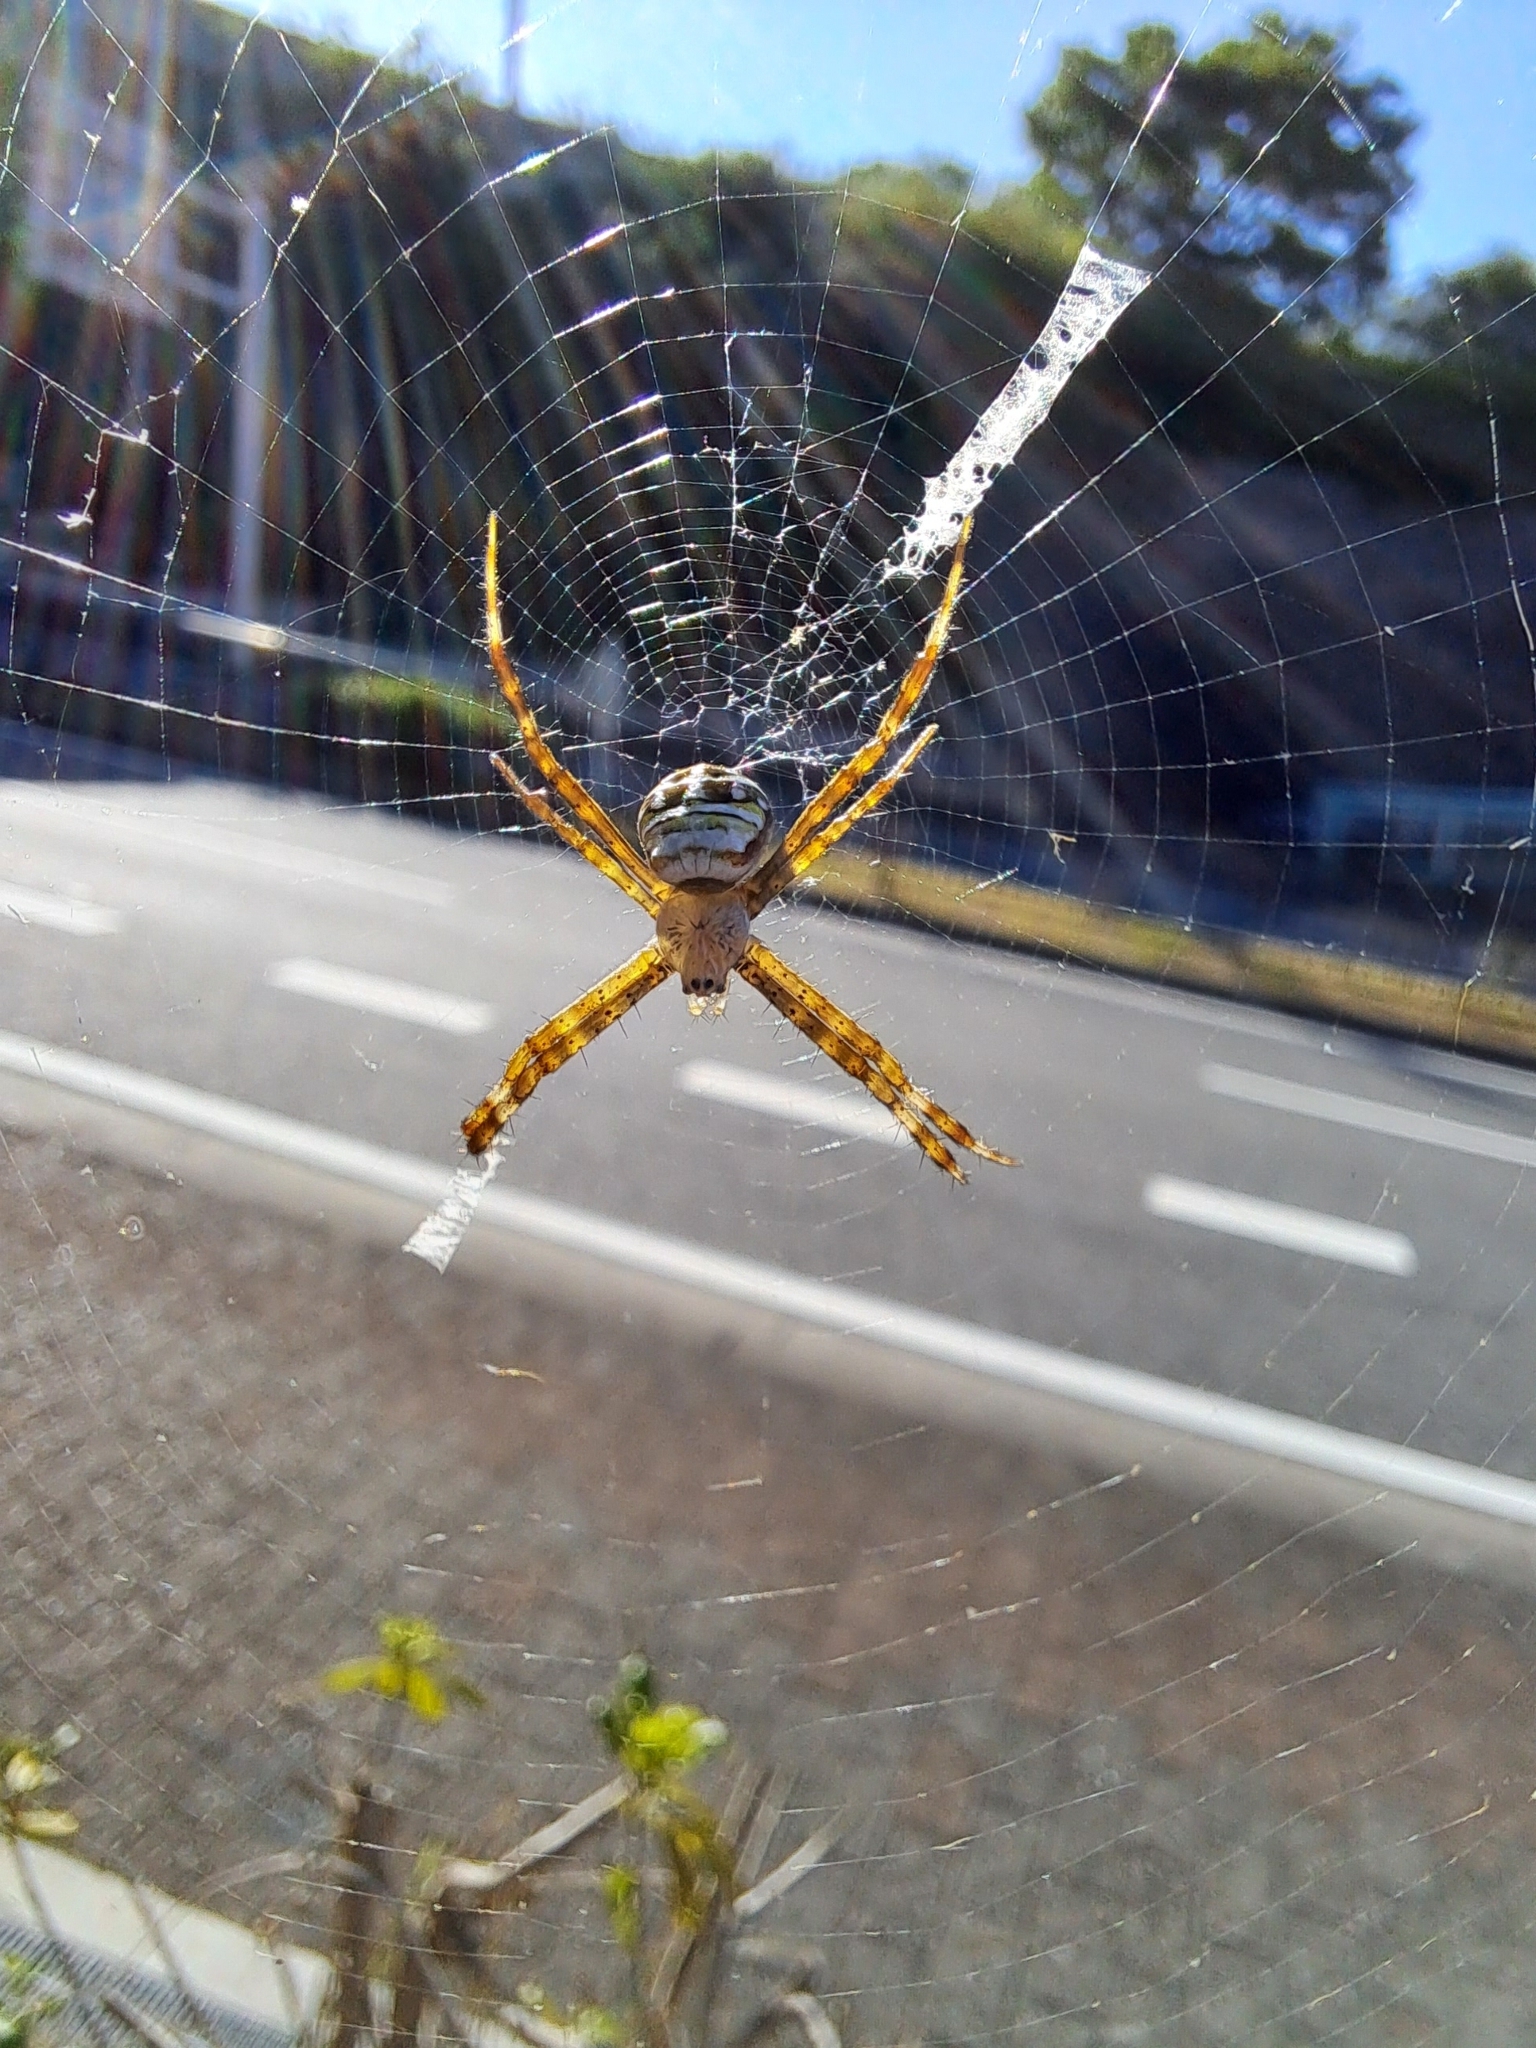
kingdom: Animalia
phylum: Arthropoda
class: Arachnida
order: Araneae
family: Araneidae
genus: Argiope
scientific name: Argiope minuta
